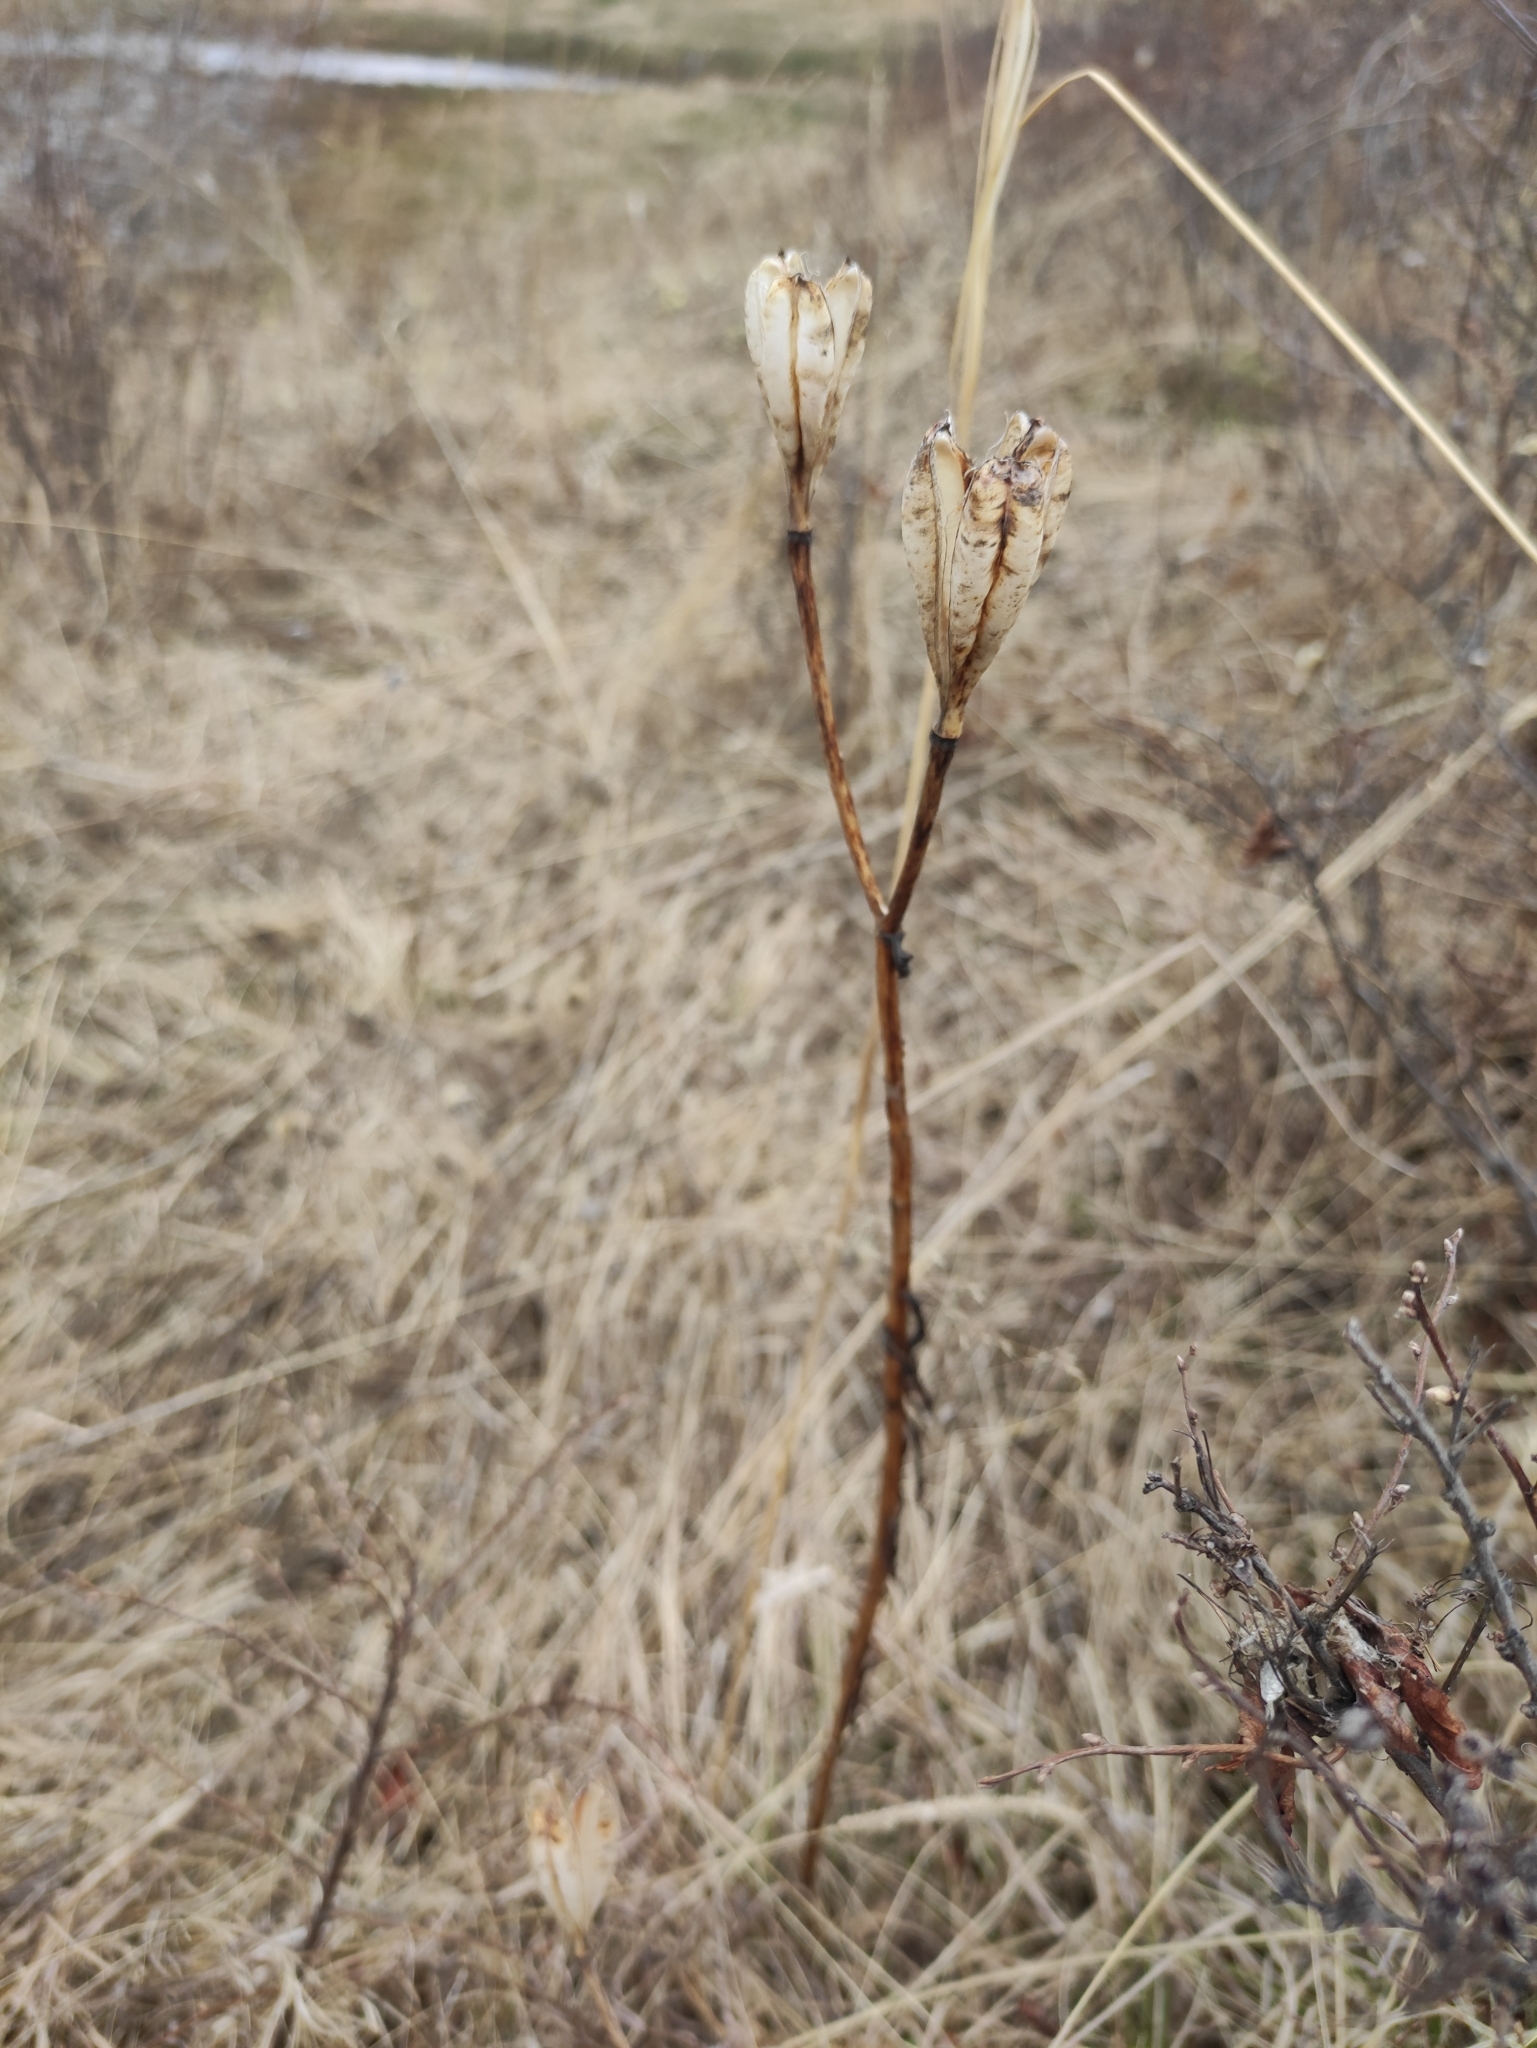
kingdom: Plantae
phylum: Tracheophyta
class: Liliopsida
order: Liliales
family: Liliaceae
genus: Lilium
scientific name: Lilium pumilum
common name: Coral lily
